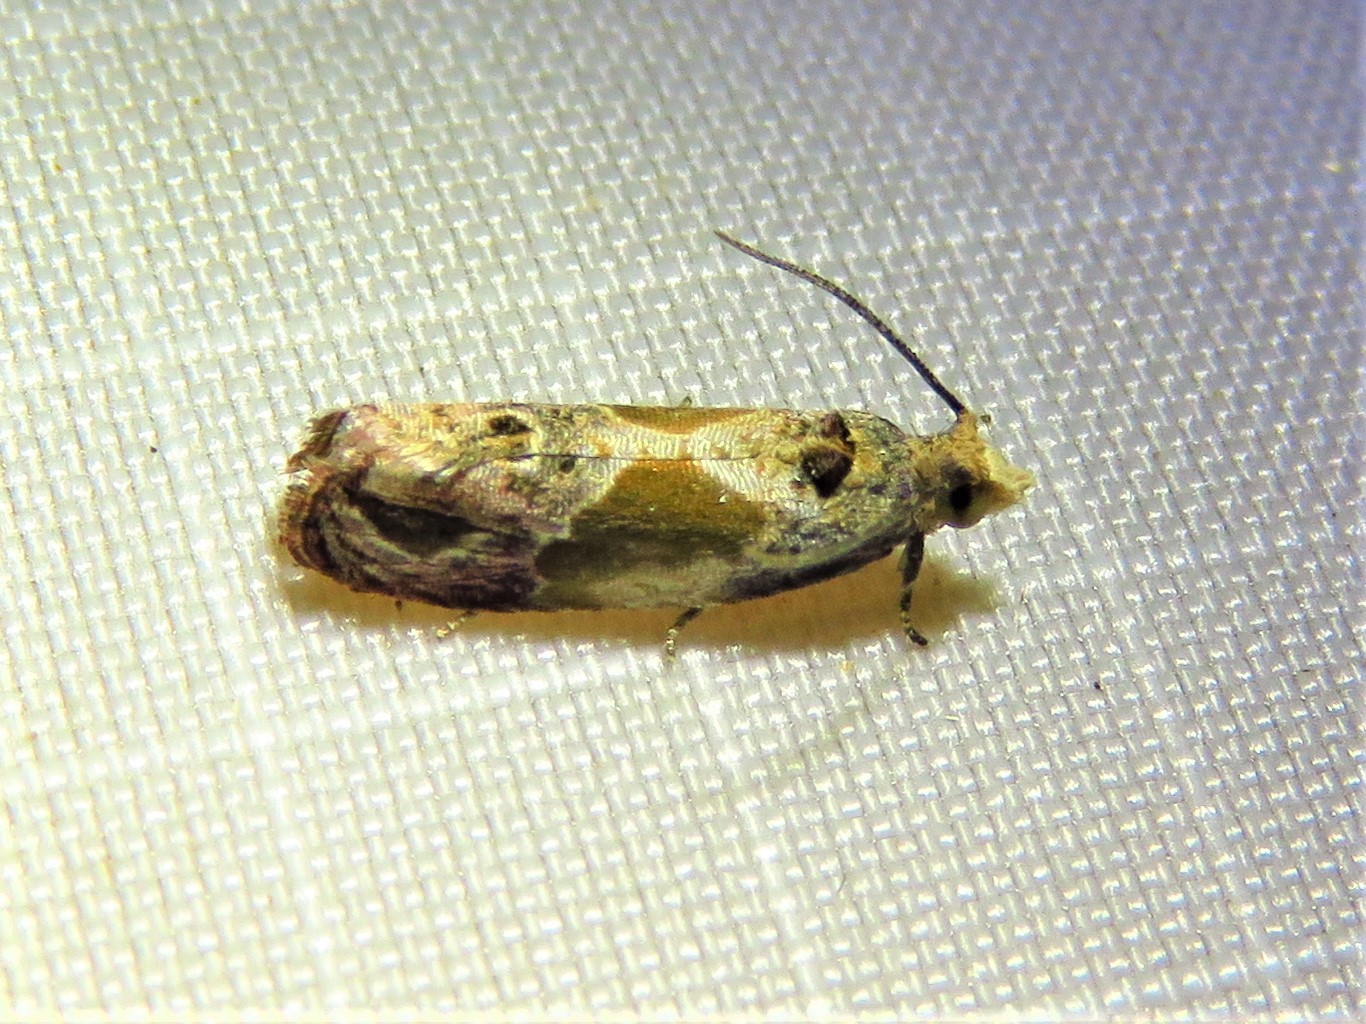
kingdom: Animalia
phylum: Arthropoda
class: Insecta
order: Lepidoptera
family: Tortricidae
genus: Eumarozia
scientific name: Eumarozia malachitana
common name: Sculptured moth
